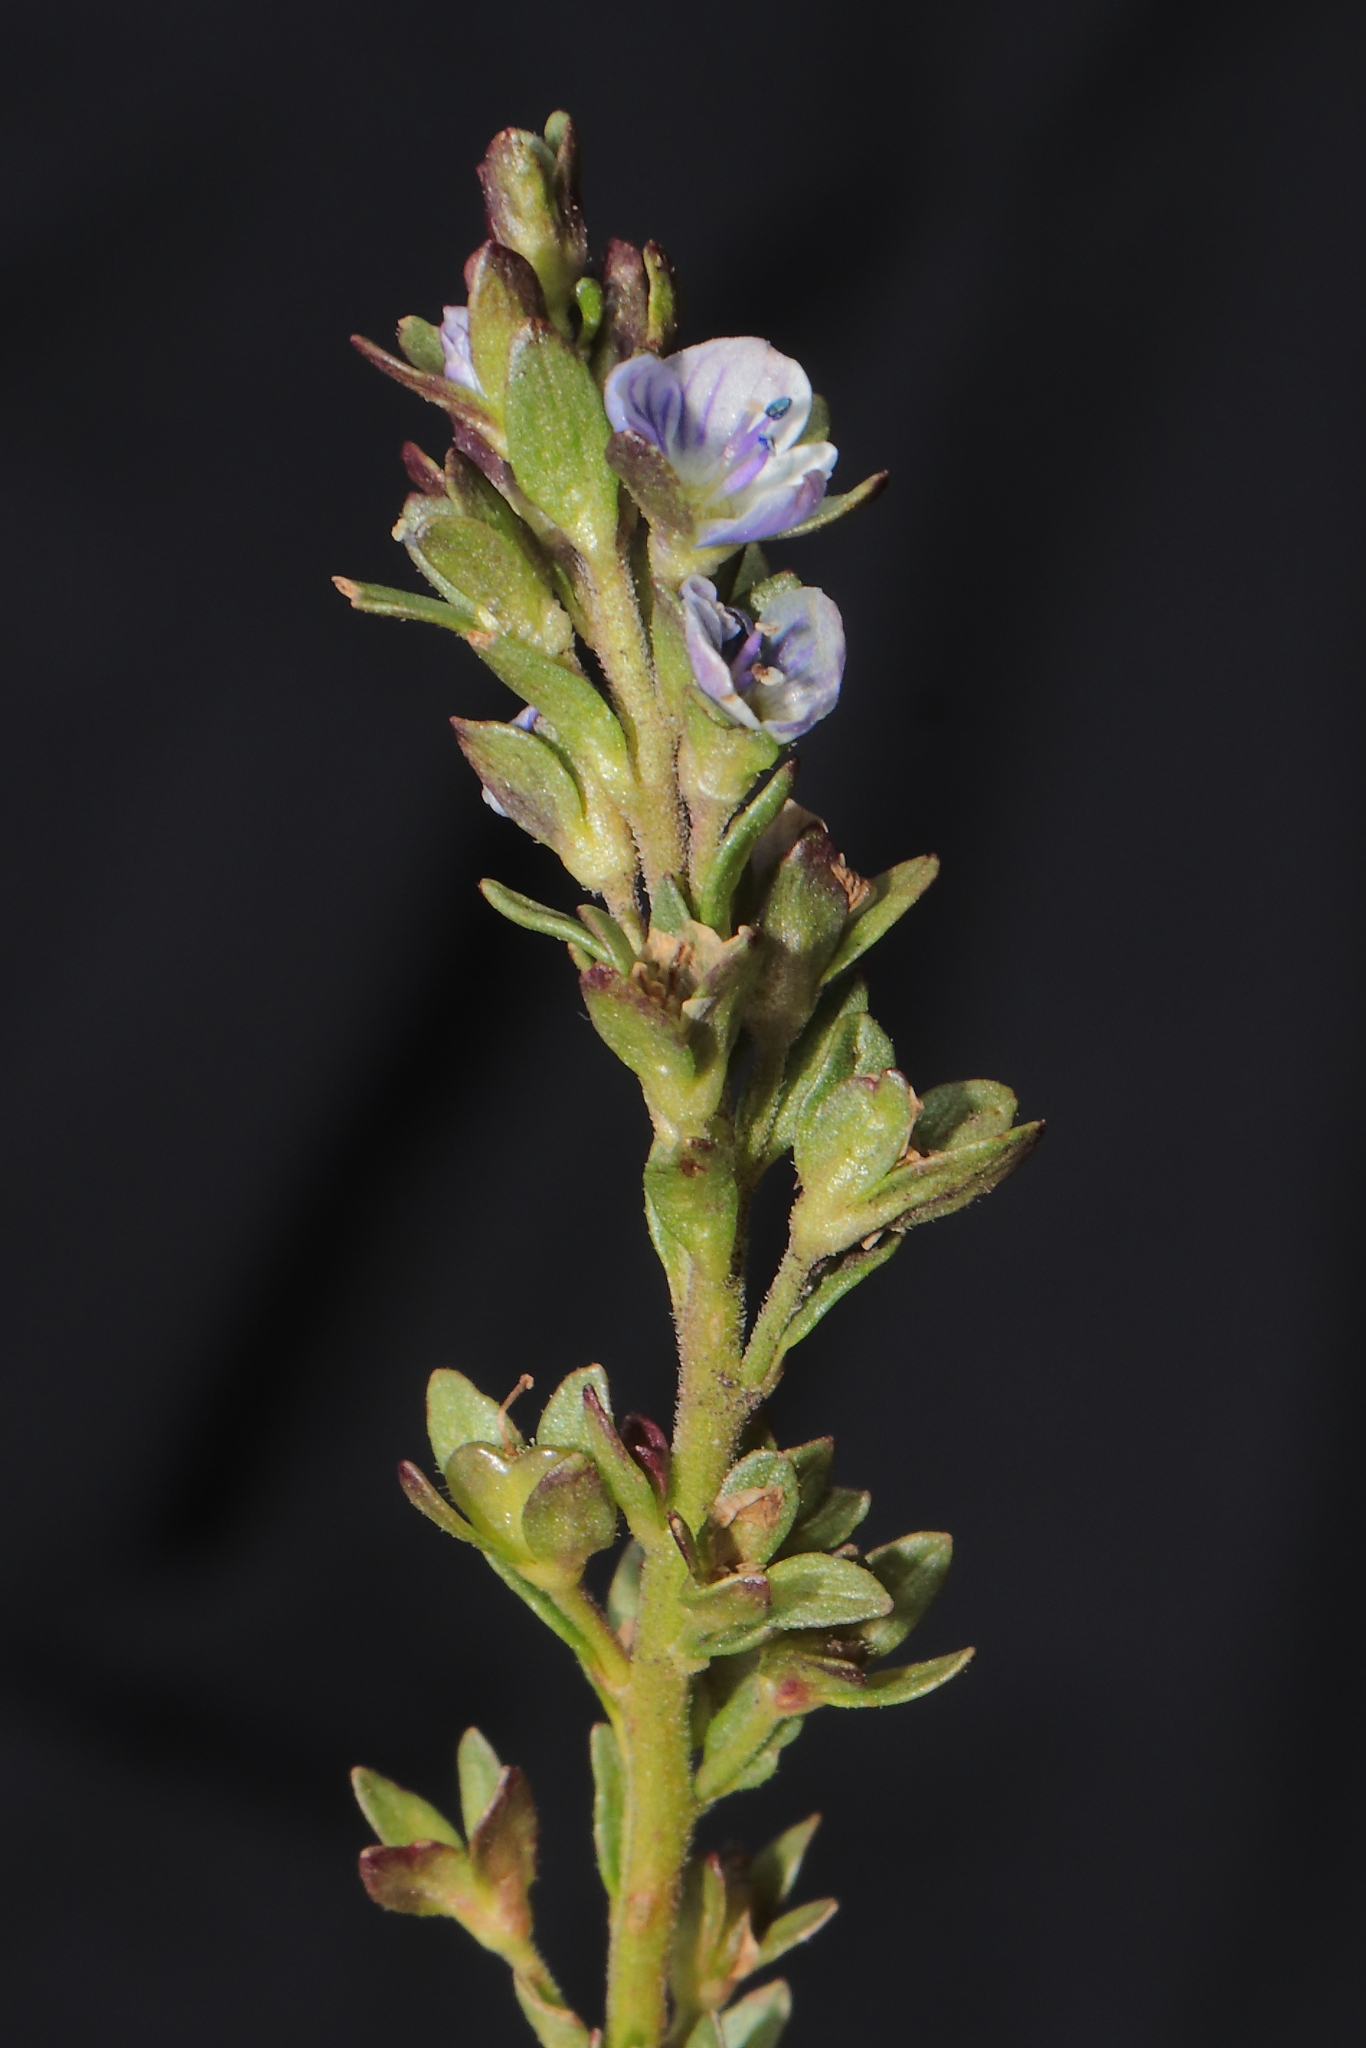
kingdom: Plantae
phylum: Tracheophyta
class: Magnoliopsida
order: Lamiales
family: Plantaginaceae
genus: Veronica
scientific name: Veronica serpyllifolia
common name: Thyme-leaved speedwell
